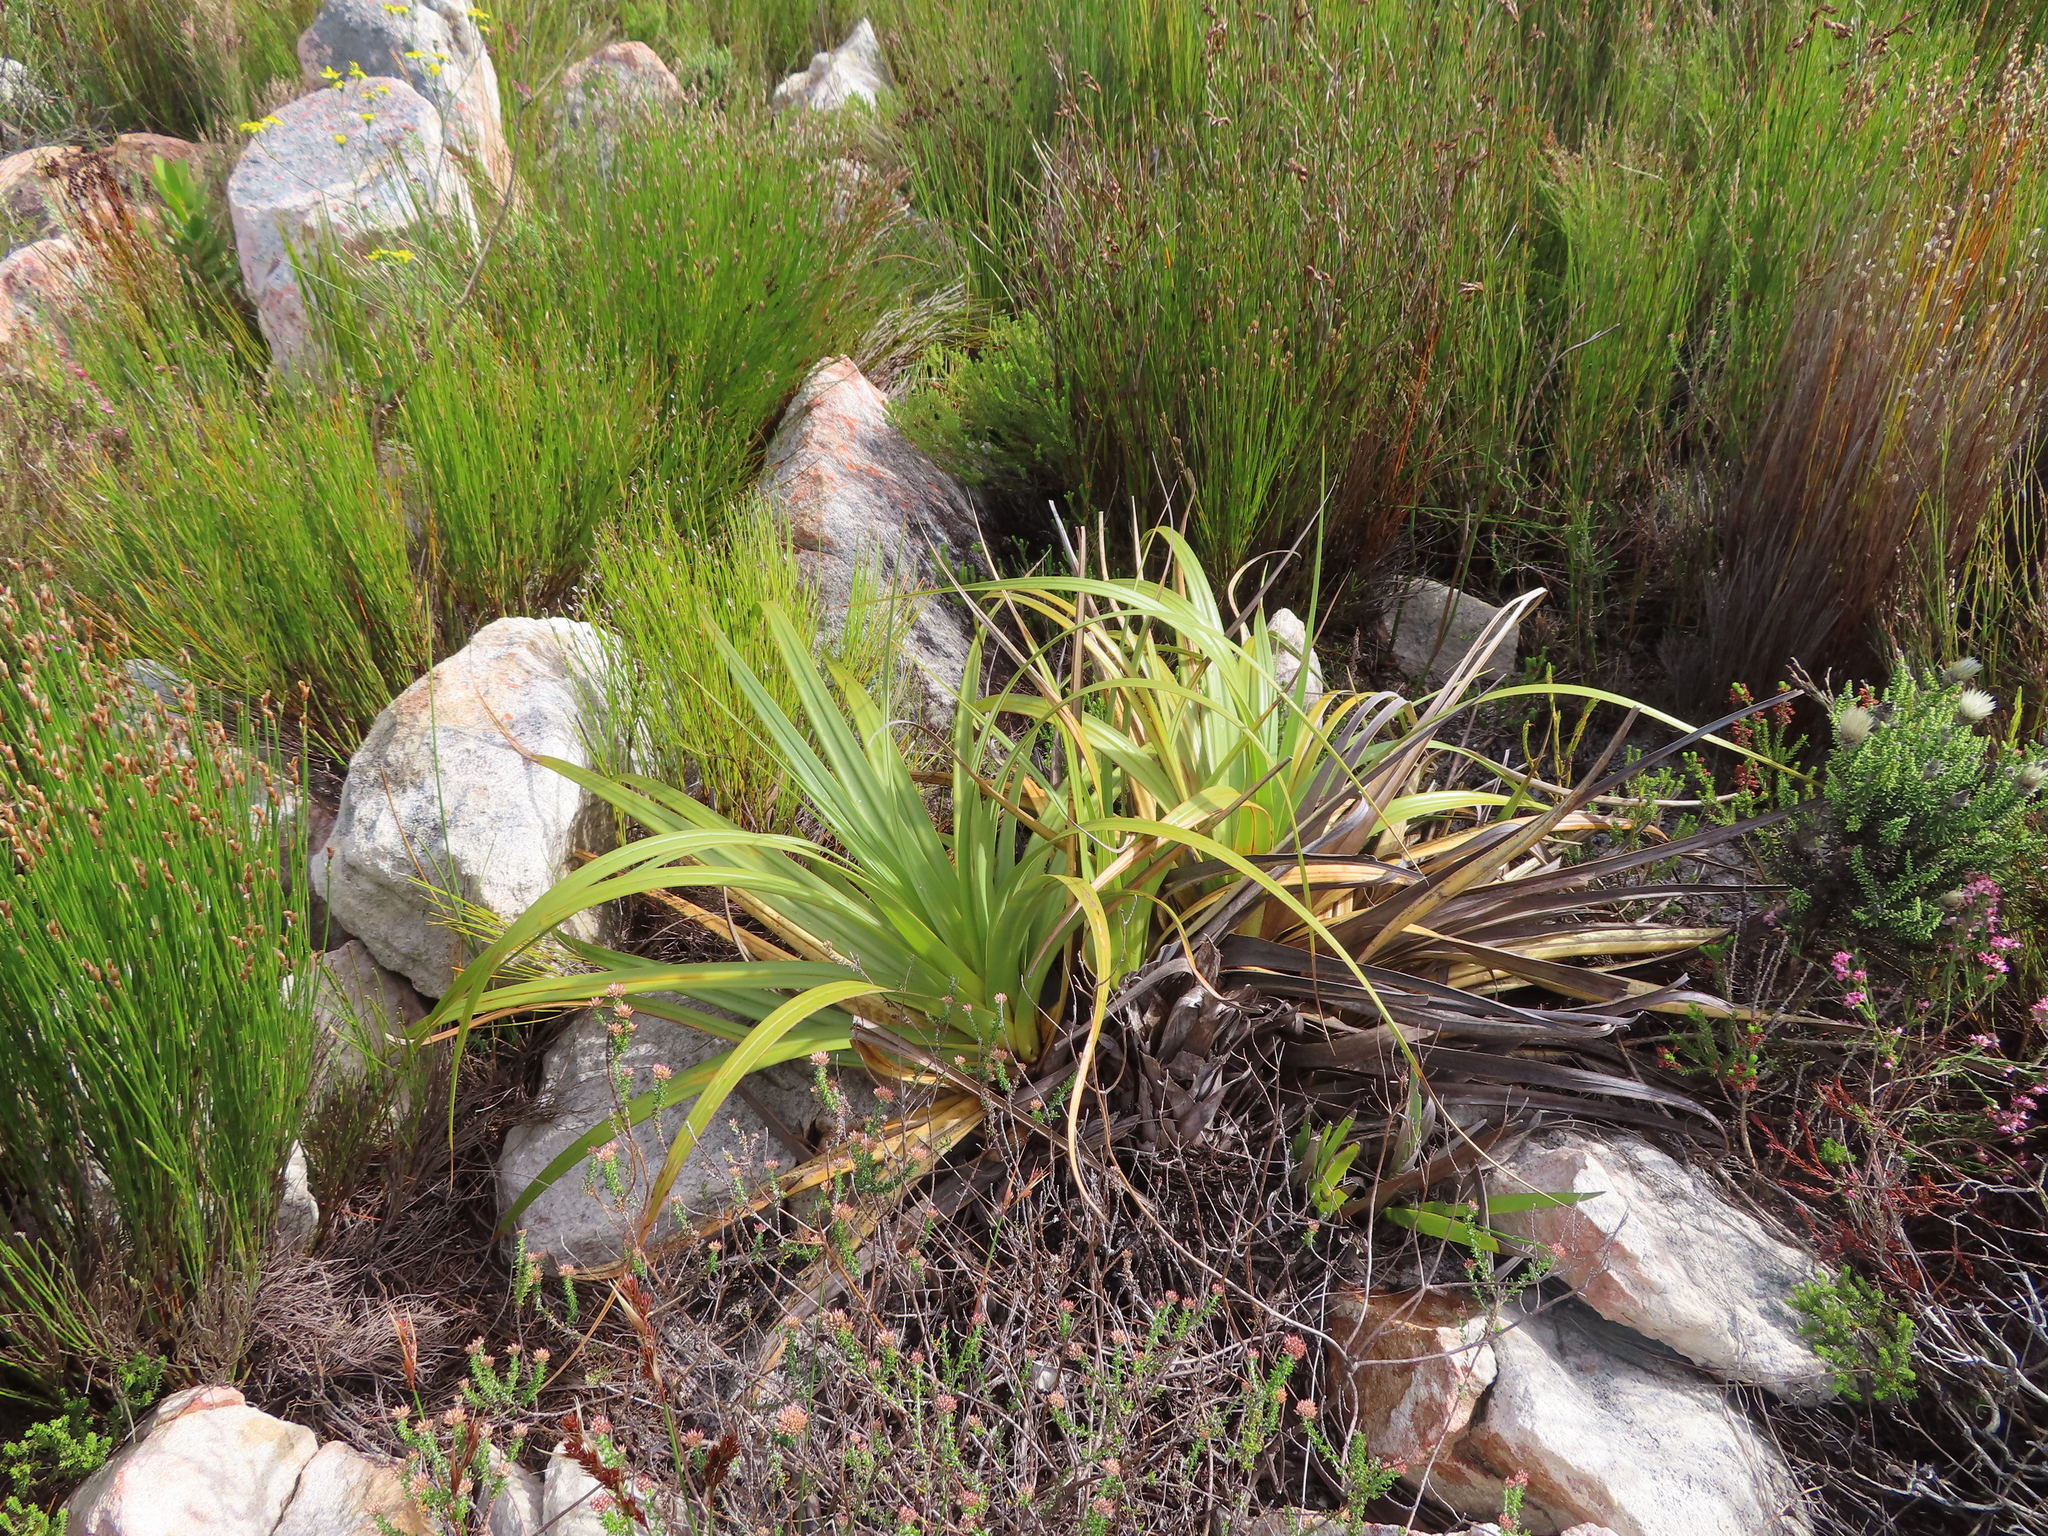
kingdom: Plantae
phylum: Tracheophyta
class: Liliopsida
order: Poales
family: Cyperaceae
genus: Tetraria
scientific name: Tetraria thermalis
